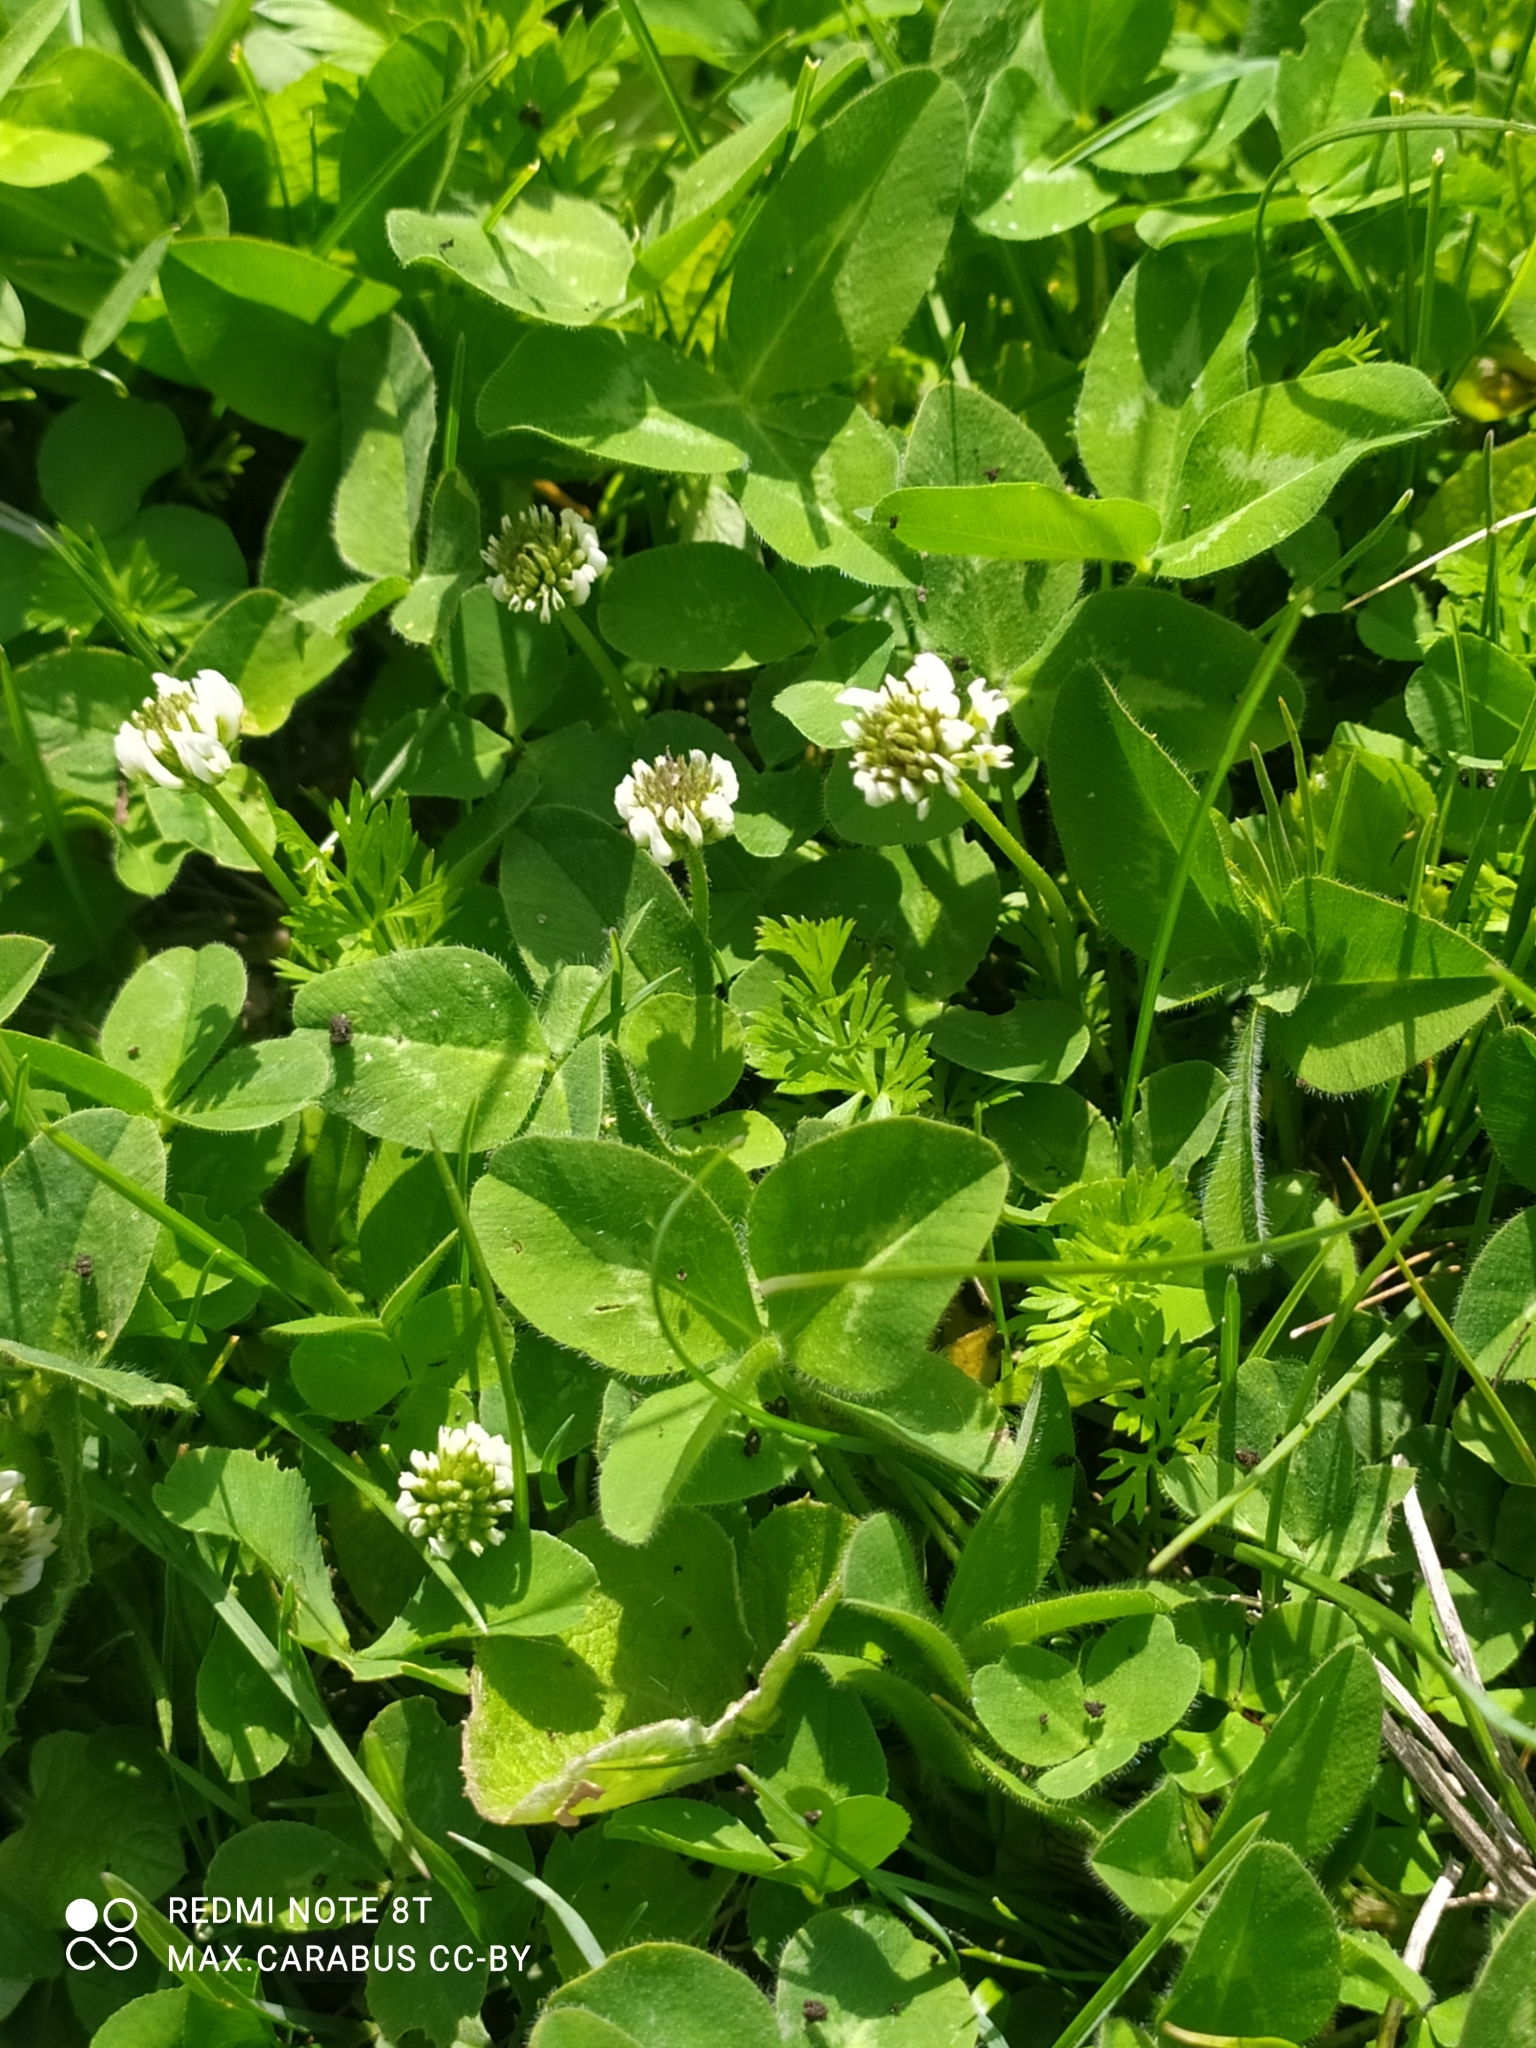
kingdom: Plantae
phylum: Tracheophyta
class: Magnoliopsida
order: Fabales
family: Fabaceae
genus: Trifolium
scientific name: Trifolium repens
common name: White clover
